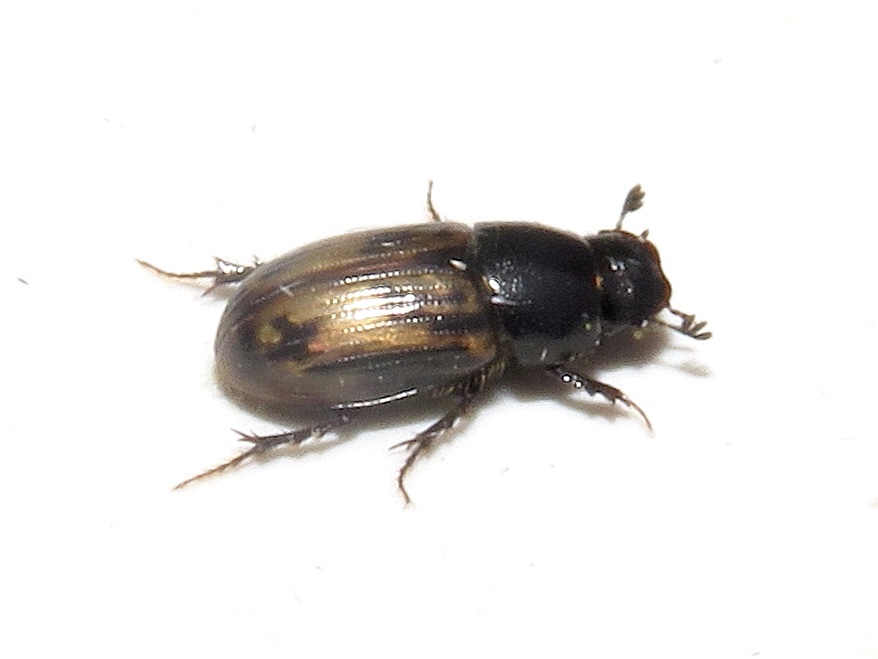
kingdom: Animalia
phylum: Arthropoda
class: Insecta
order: Coleoptera
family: Scarabaeidae
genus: Agoliinus
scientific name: Agoliinus leopardus
